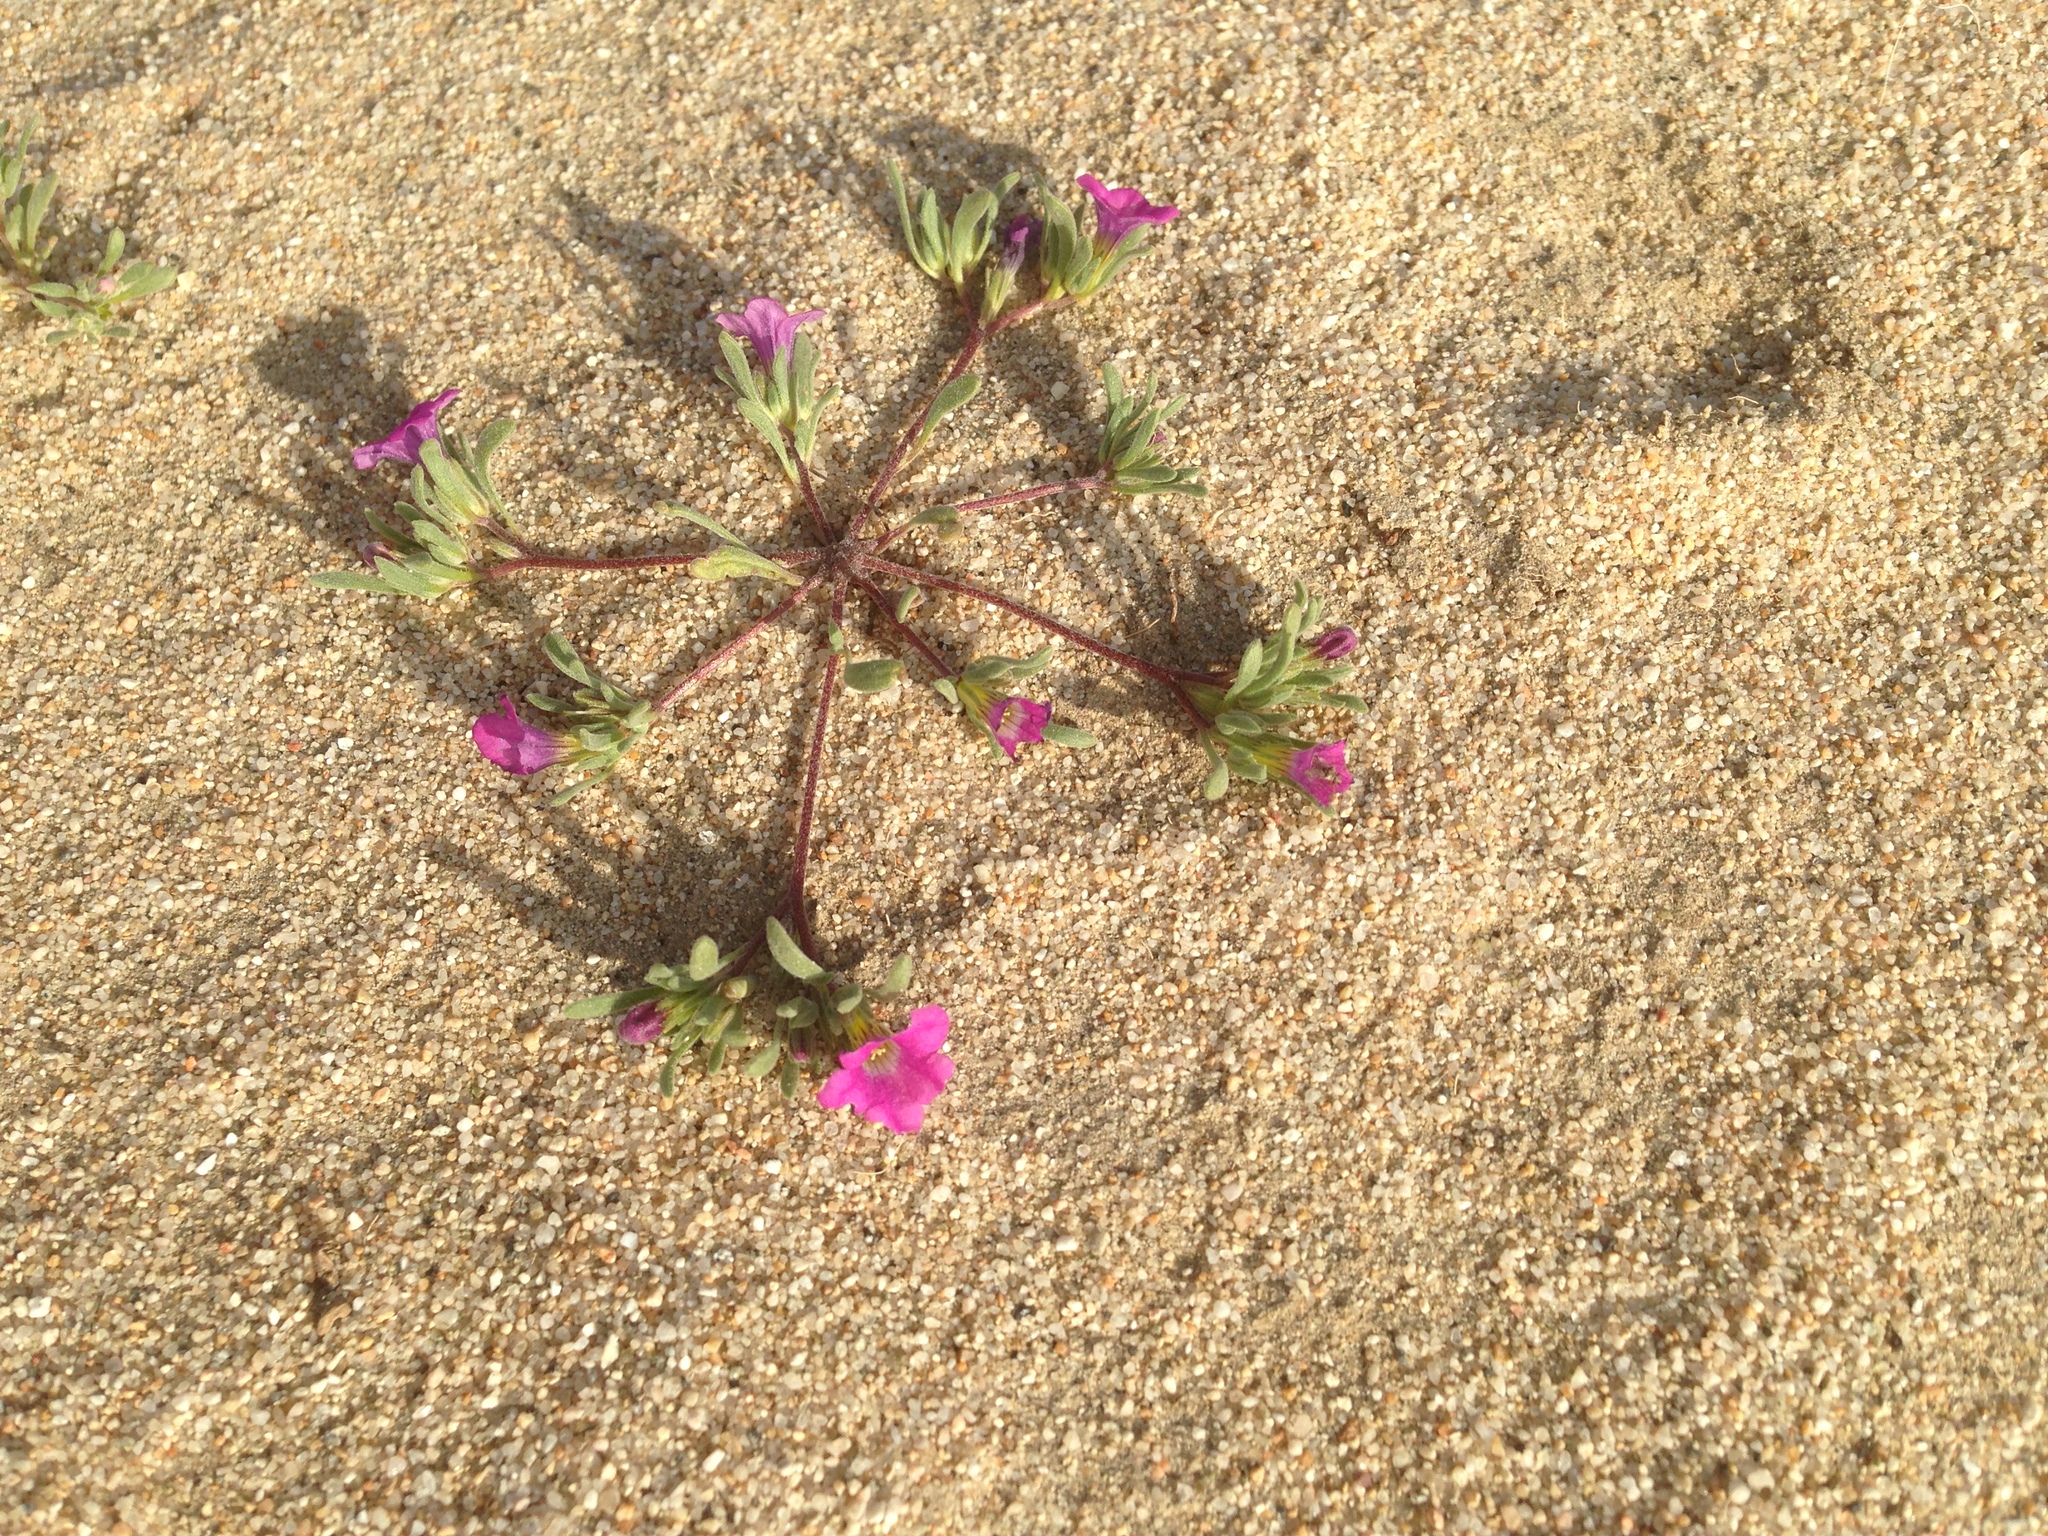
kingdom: Plantae
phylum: Tracheophyta
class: Magnoliopsida
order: Boraginales
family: Namaceae
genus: Nama
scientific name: Nama demissa
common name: Leafy nama
